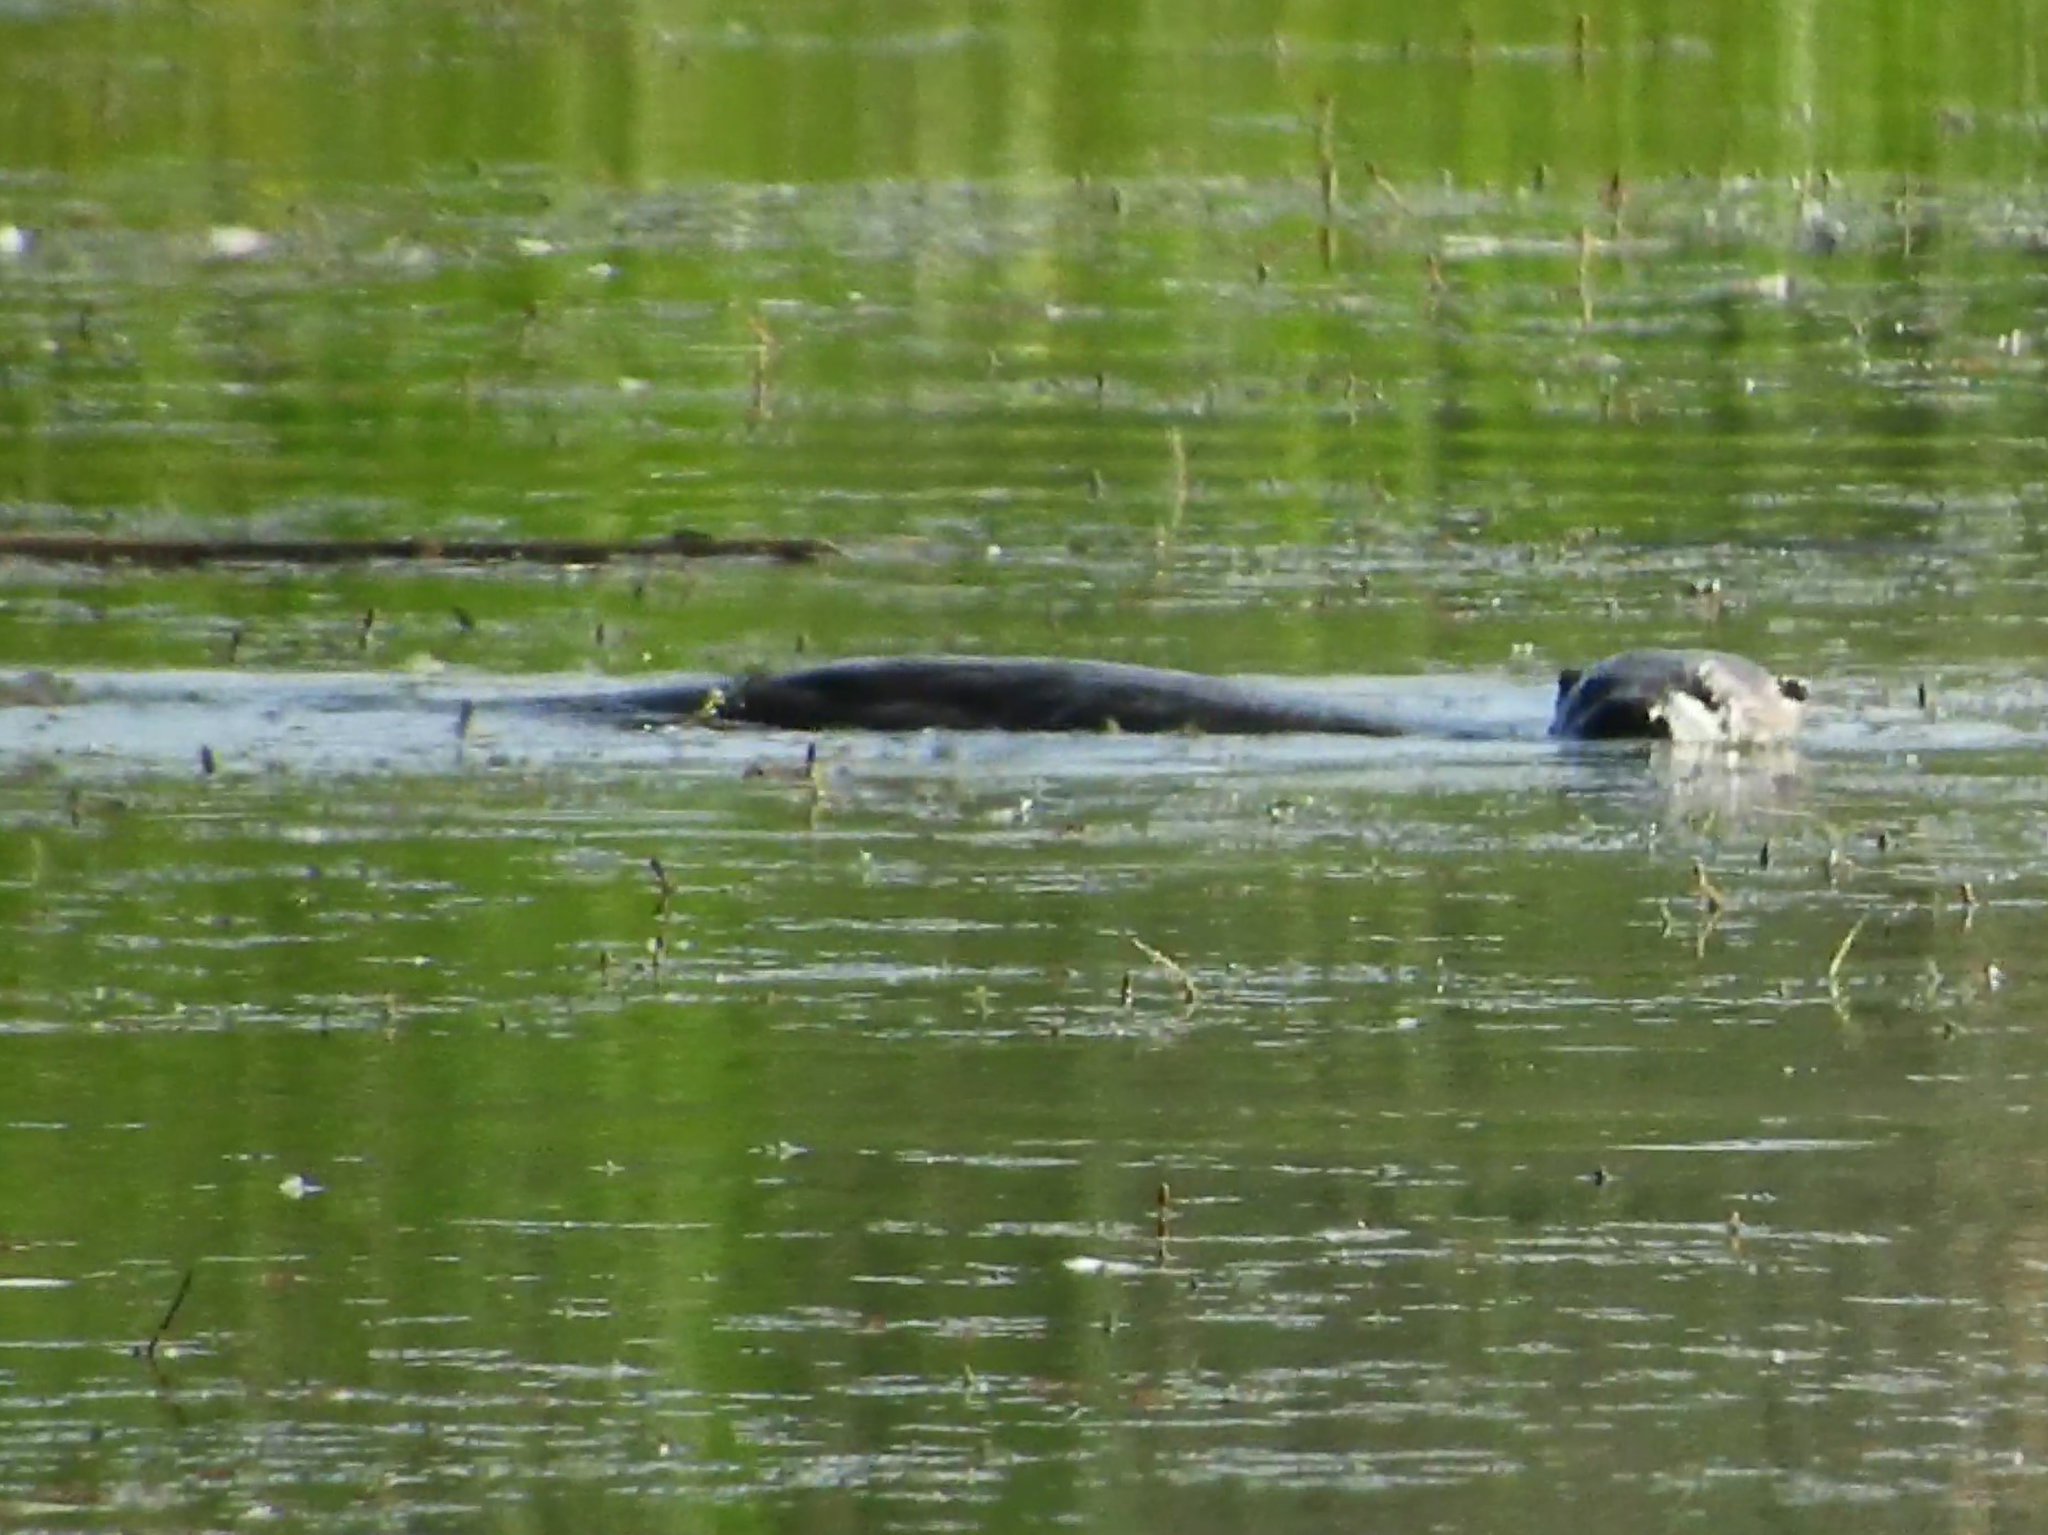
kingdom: Animalia
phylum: Chordata
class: Mammalia
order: Carnivora
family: Mustelidae
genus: Lontra
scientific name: Lontra canadensis
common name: North american river otter
